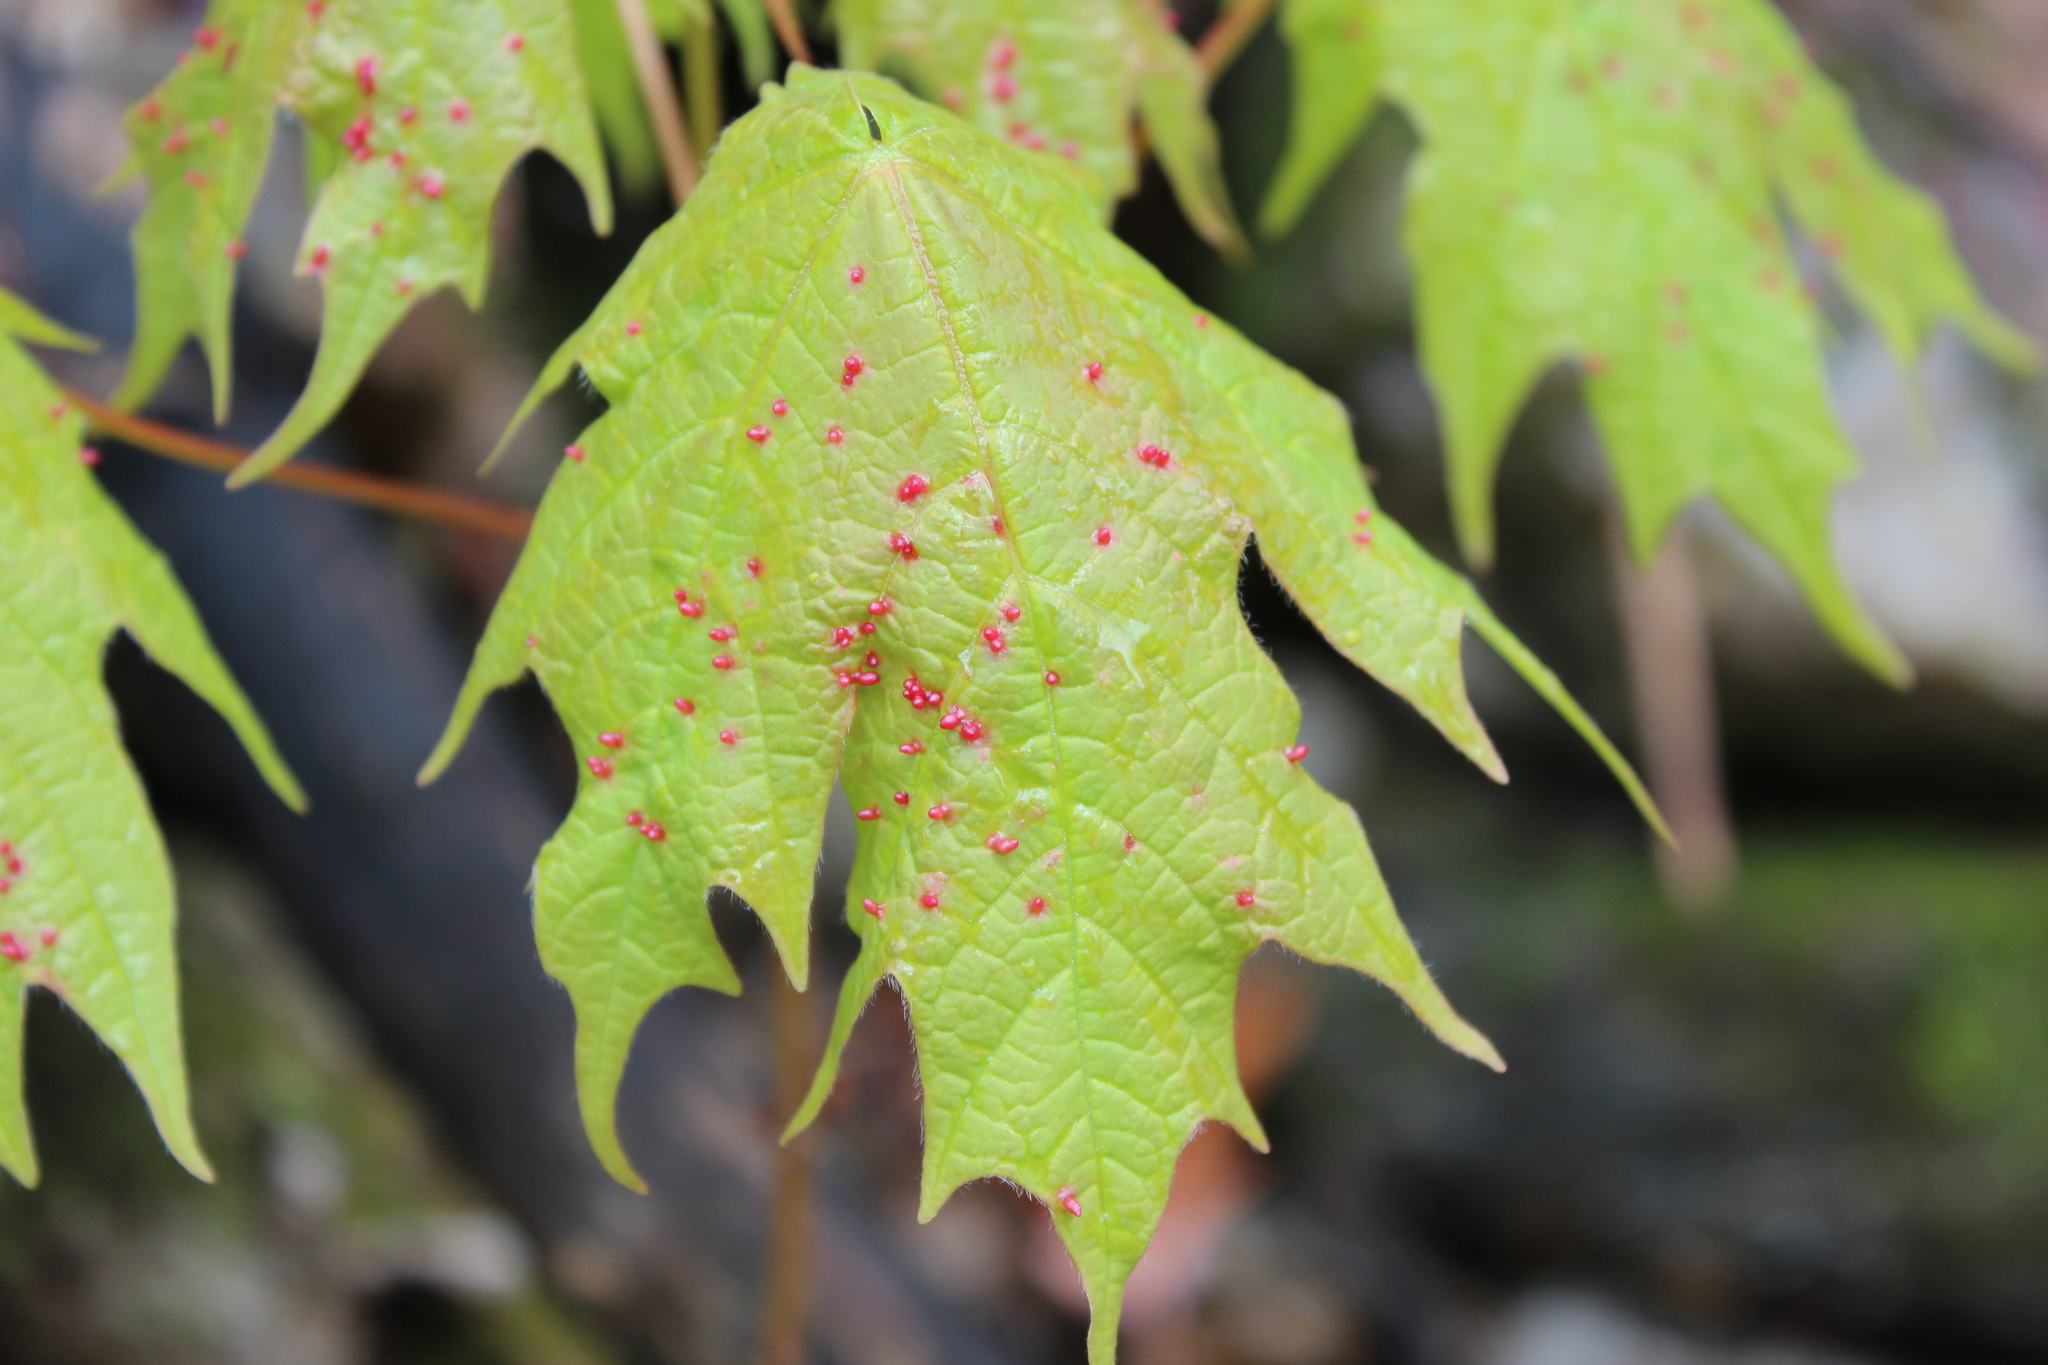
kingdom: Plantae
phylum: Tracheophyta
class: Magnoliopsida
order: Sapindales
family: Sapindaceae
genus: Acer
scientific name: Acer saccharum
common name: Sugar maple
